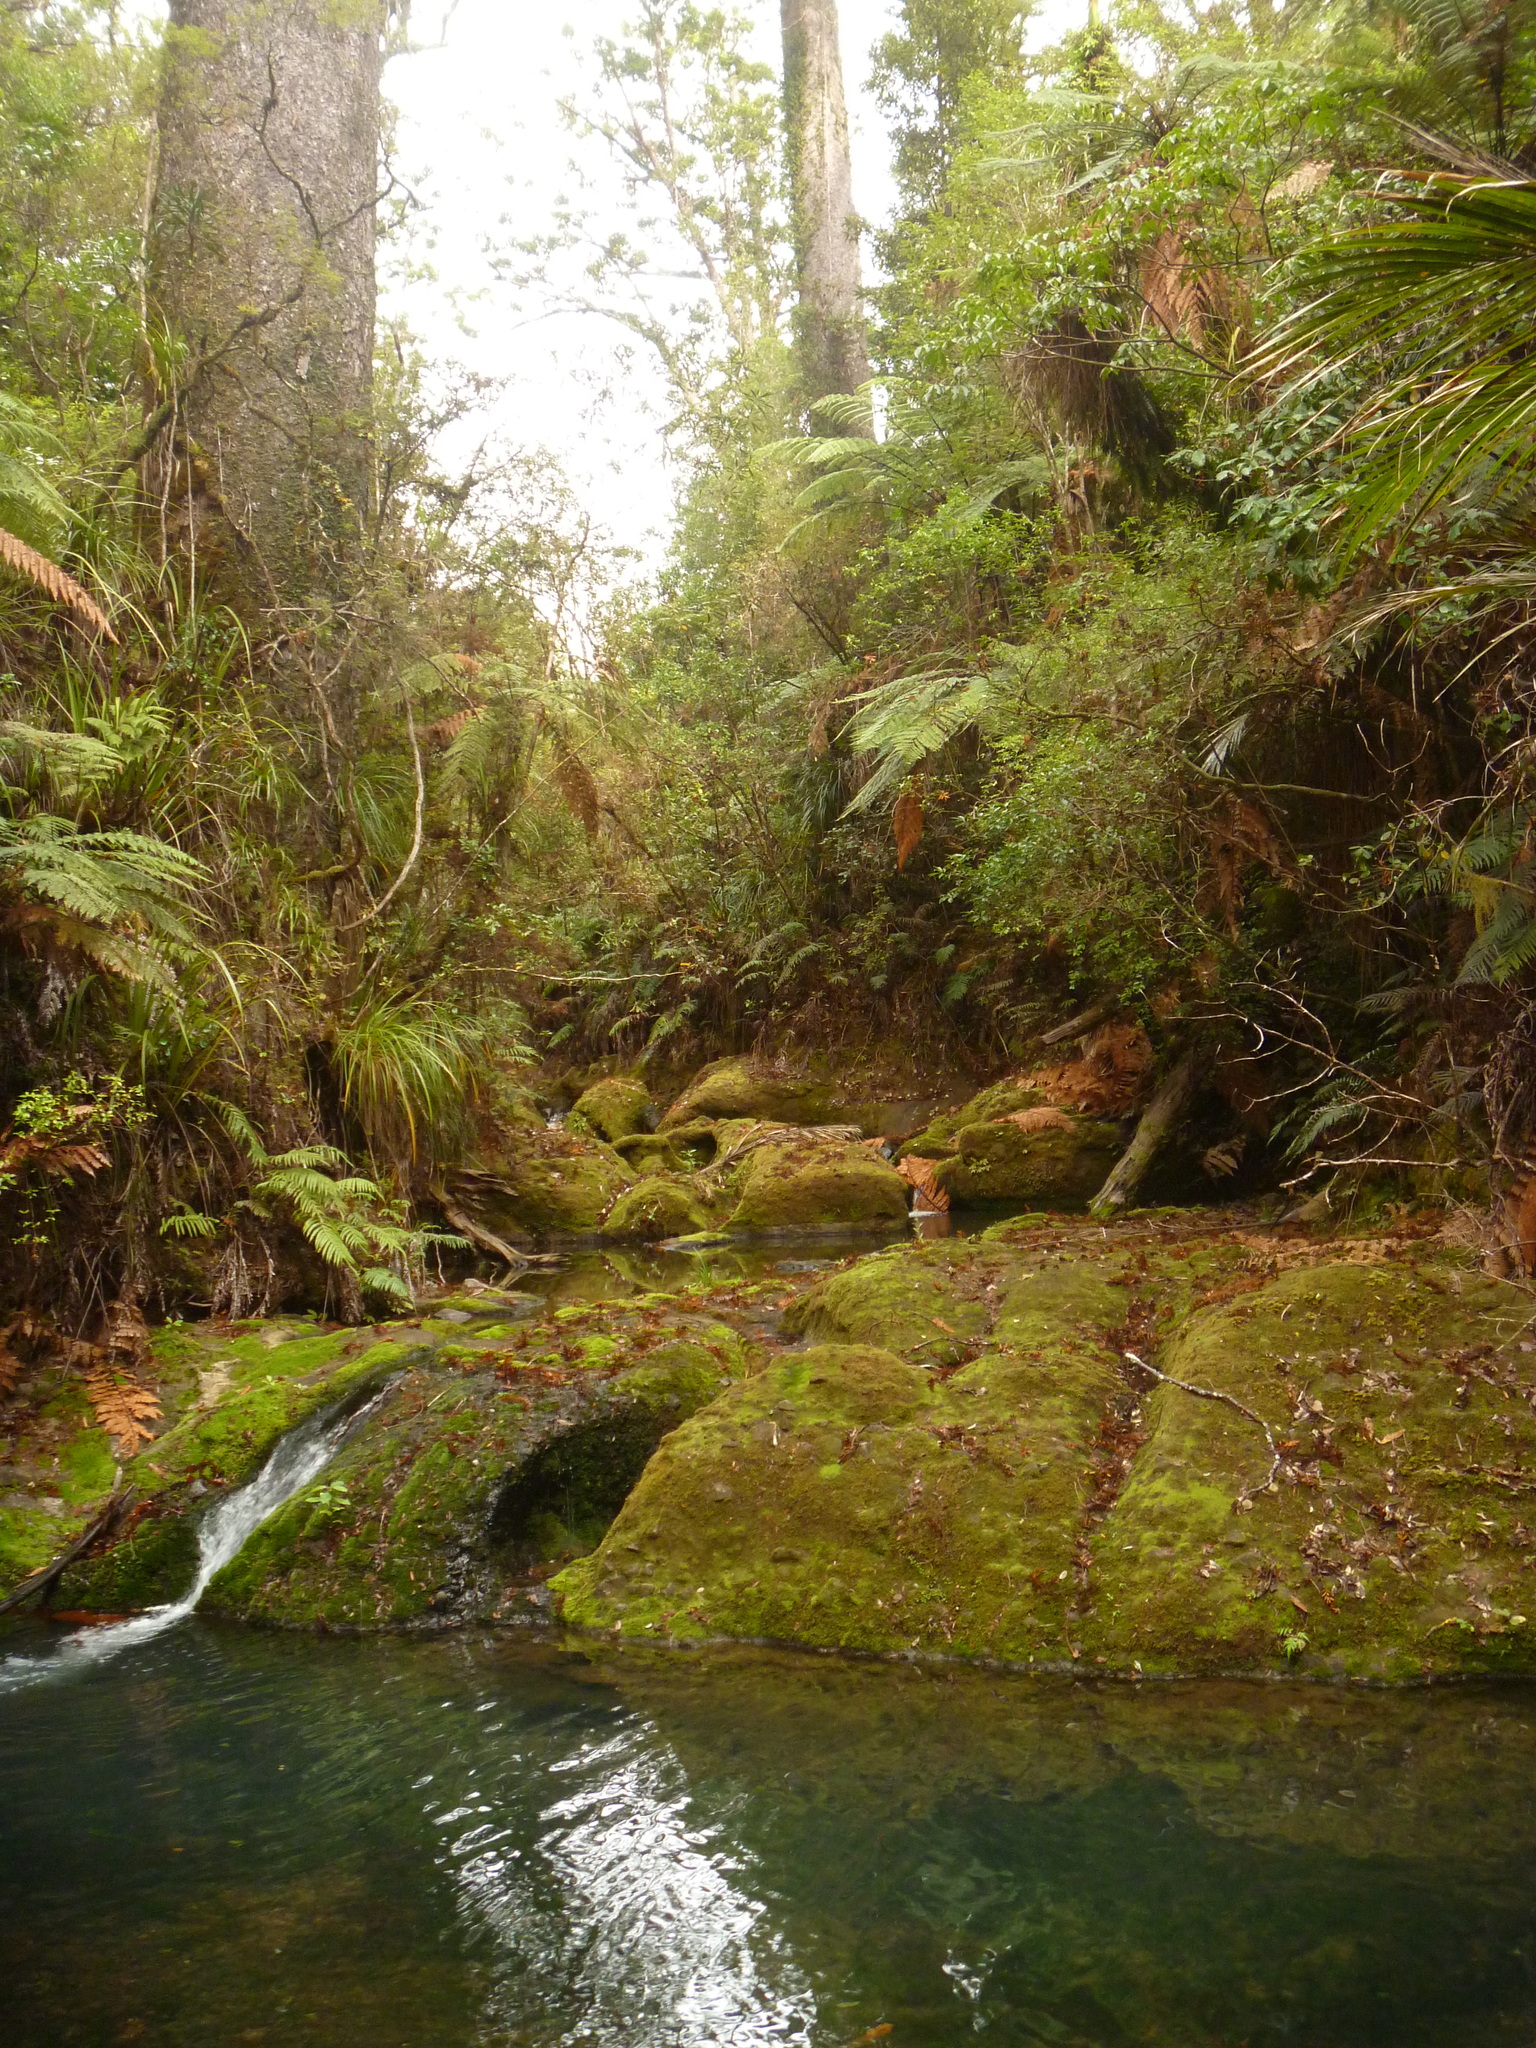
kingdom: Plantae
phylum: Tracheophyta
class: Pinopsida
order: Pinales
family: Araucariaceae
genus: Agathis
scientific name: Agathis australis
